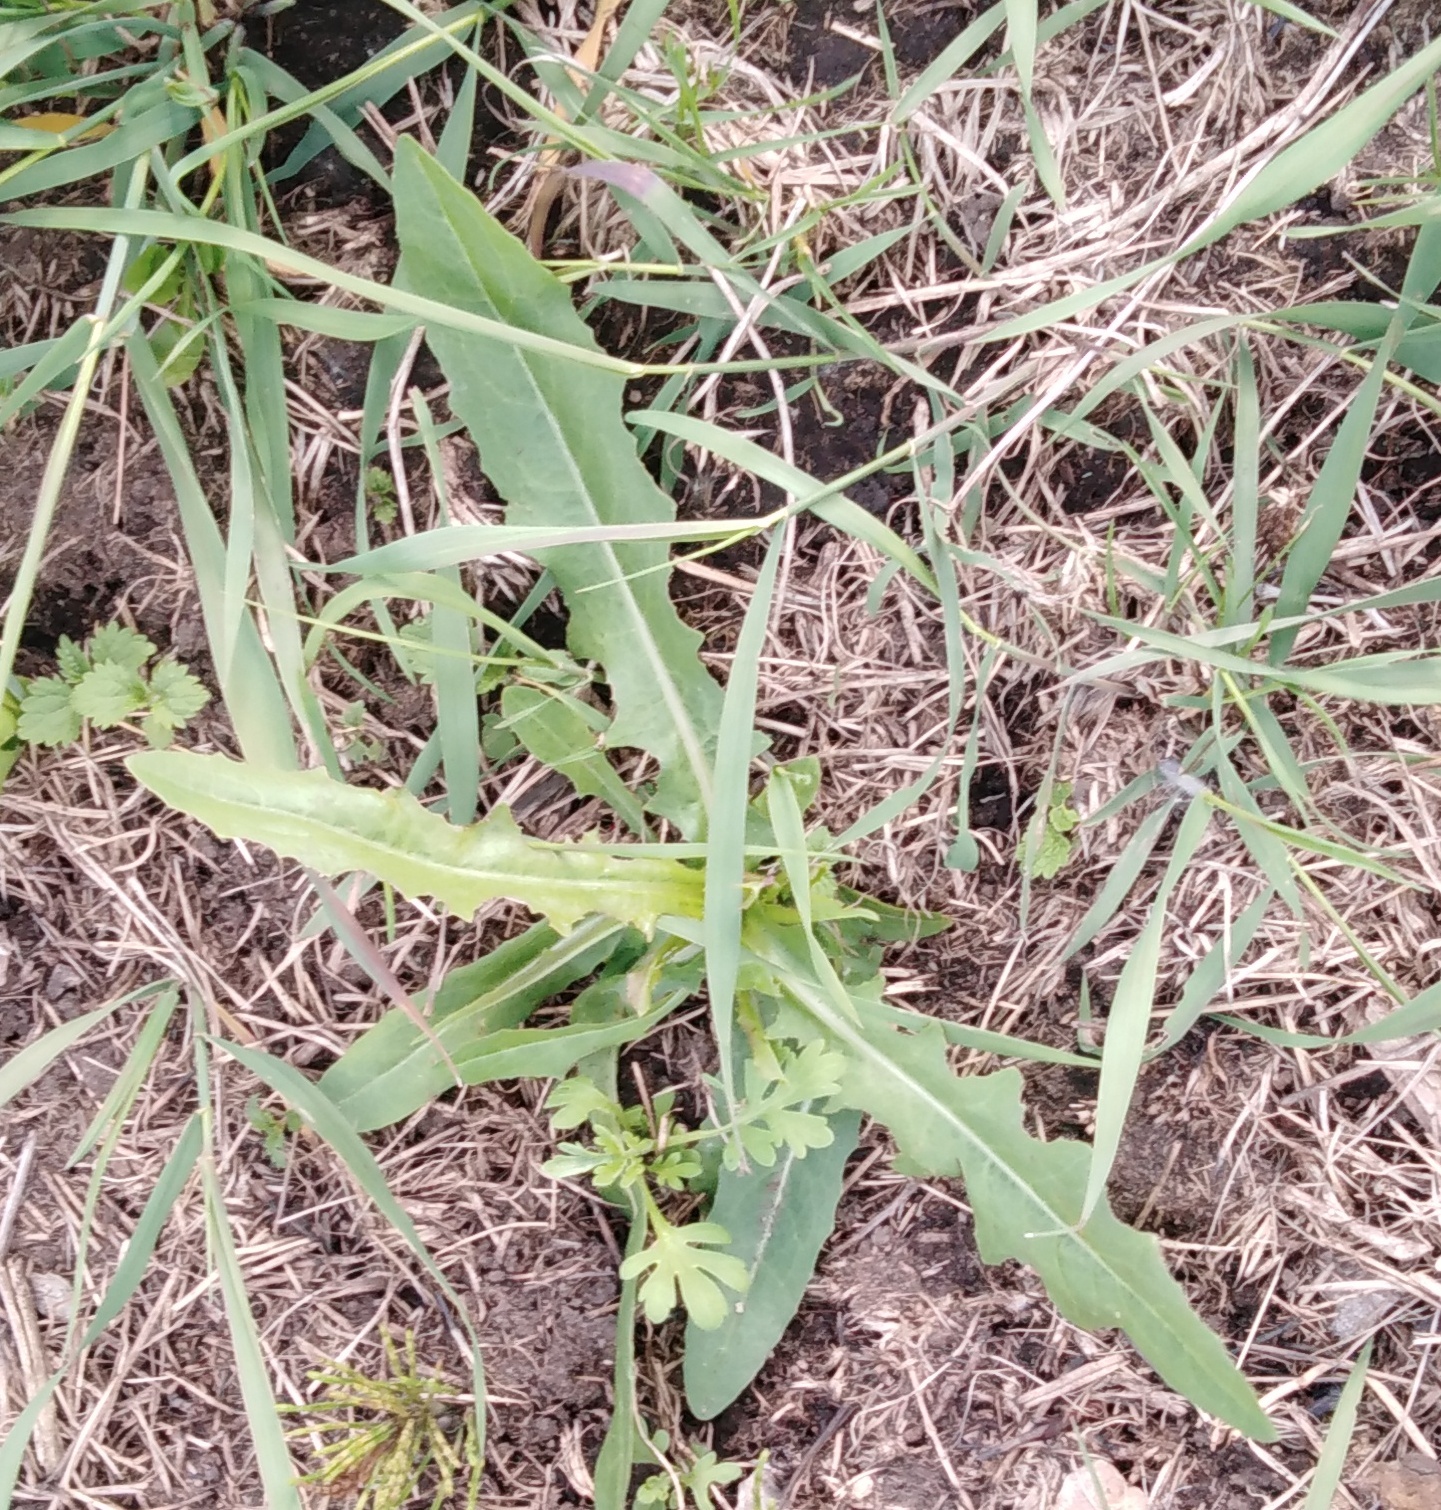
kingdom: Plantae
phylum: Tracheophyta
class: Magnoliopsida
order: Asterales
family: Asteraceae
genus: Cichorium
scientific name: Cichorium intybus
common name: Chicory
